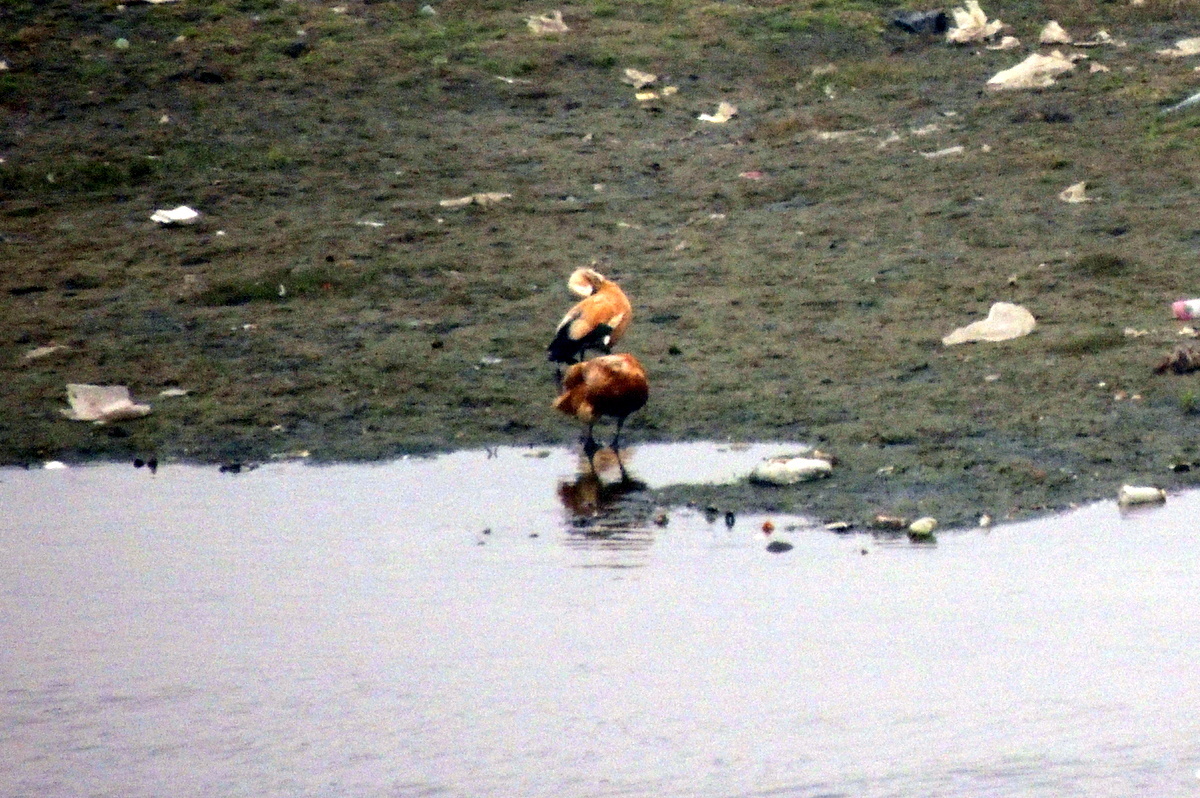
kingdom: Animalia
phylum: Chordata
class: Aves
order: Anseriformes
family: Anatidae
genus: Tadorna
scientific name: Tadorna ferruginea
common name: Ruddy shelduck
